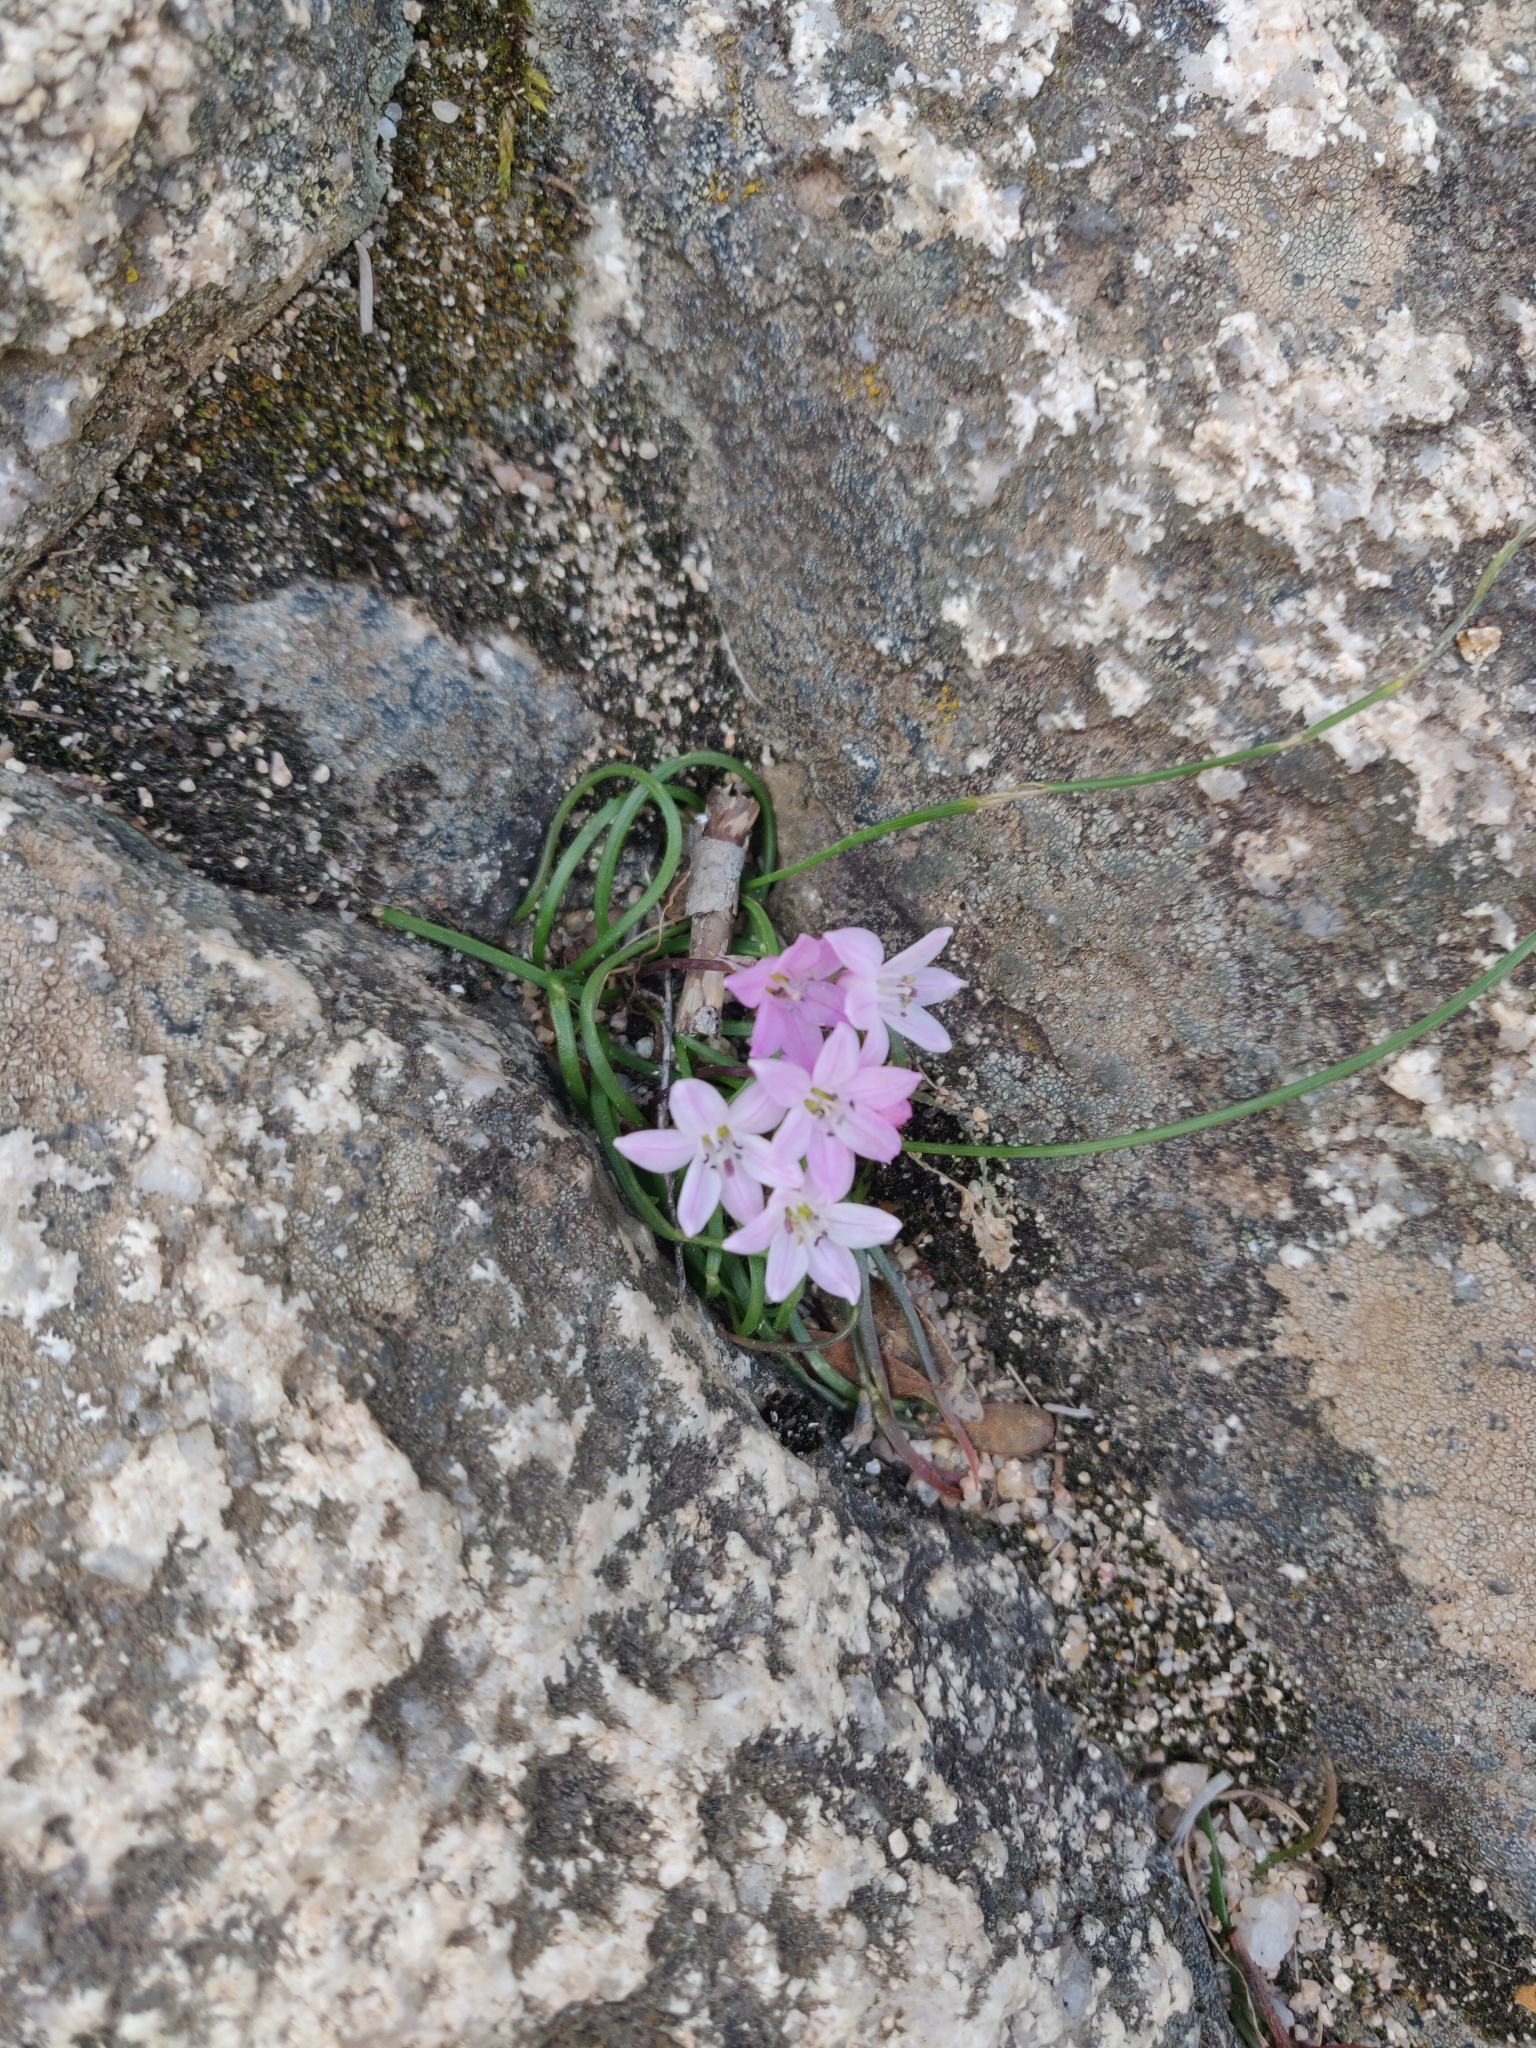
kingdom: Plantae
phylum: Tracheophyta
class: Liliopsida
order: Asparagales
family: Asparagaceae
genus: Brimeura
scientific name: Brimeura fastigiata
